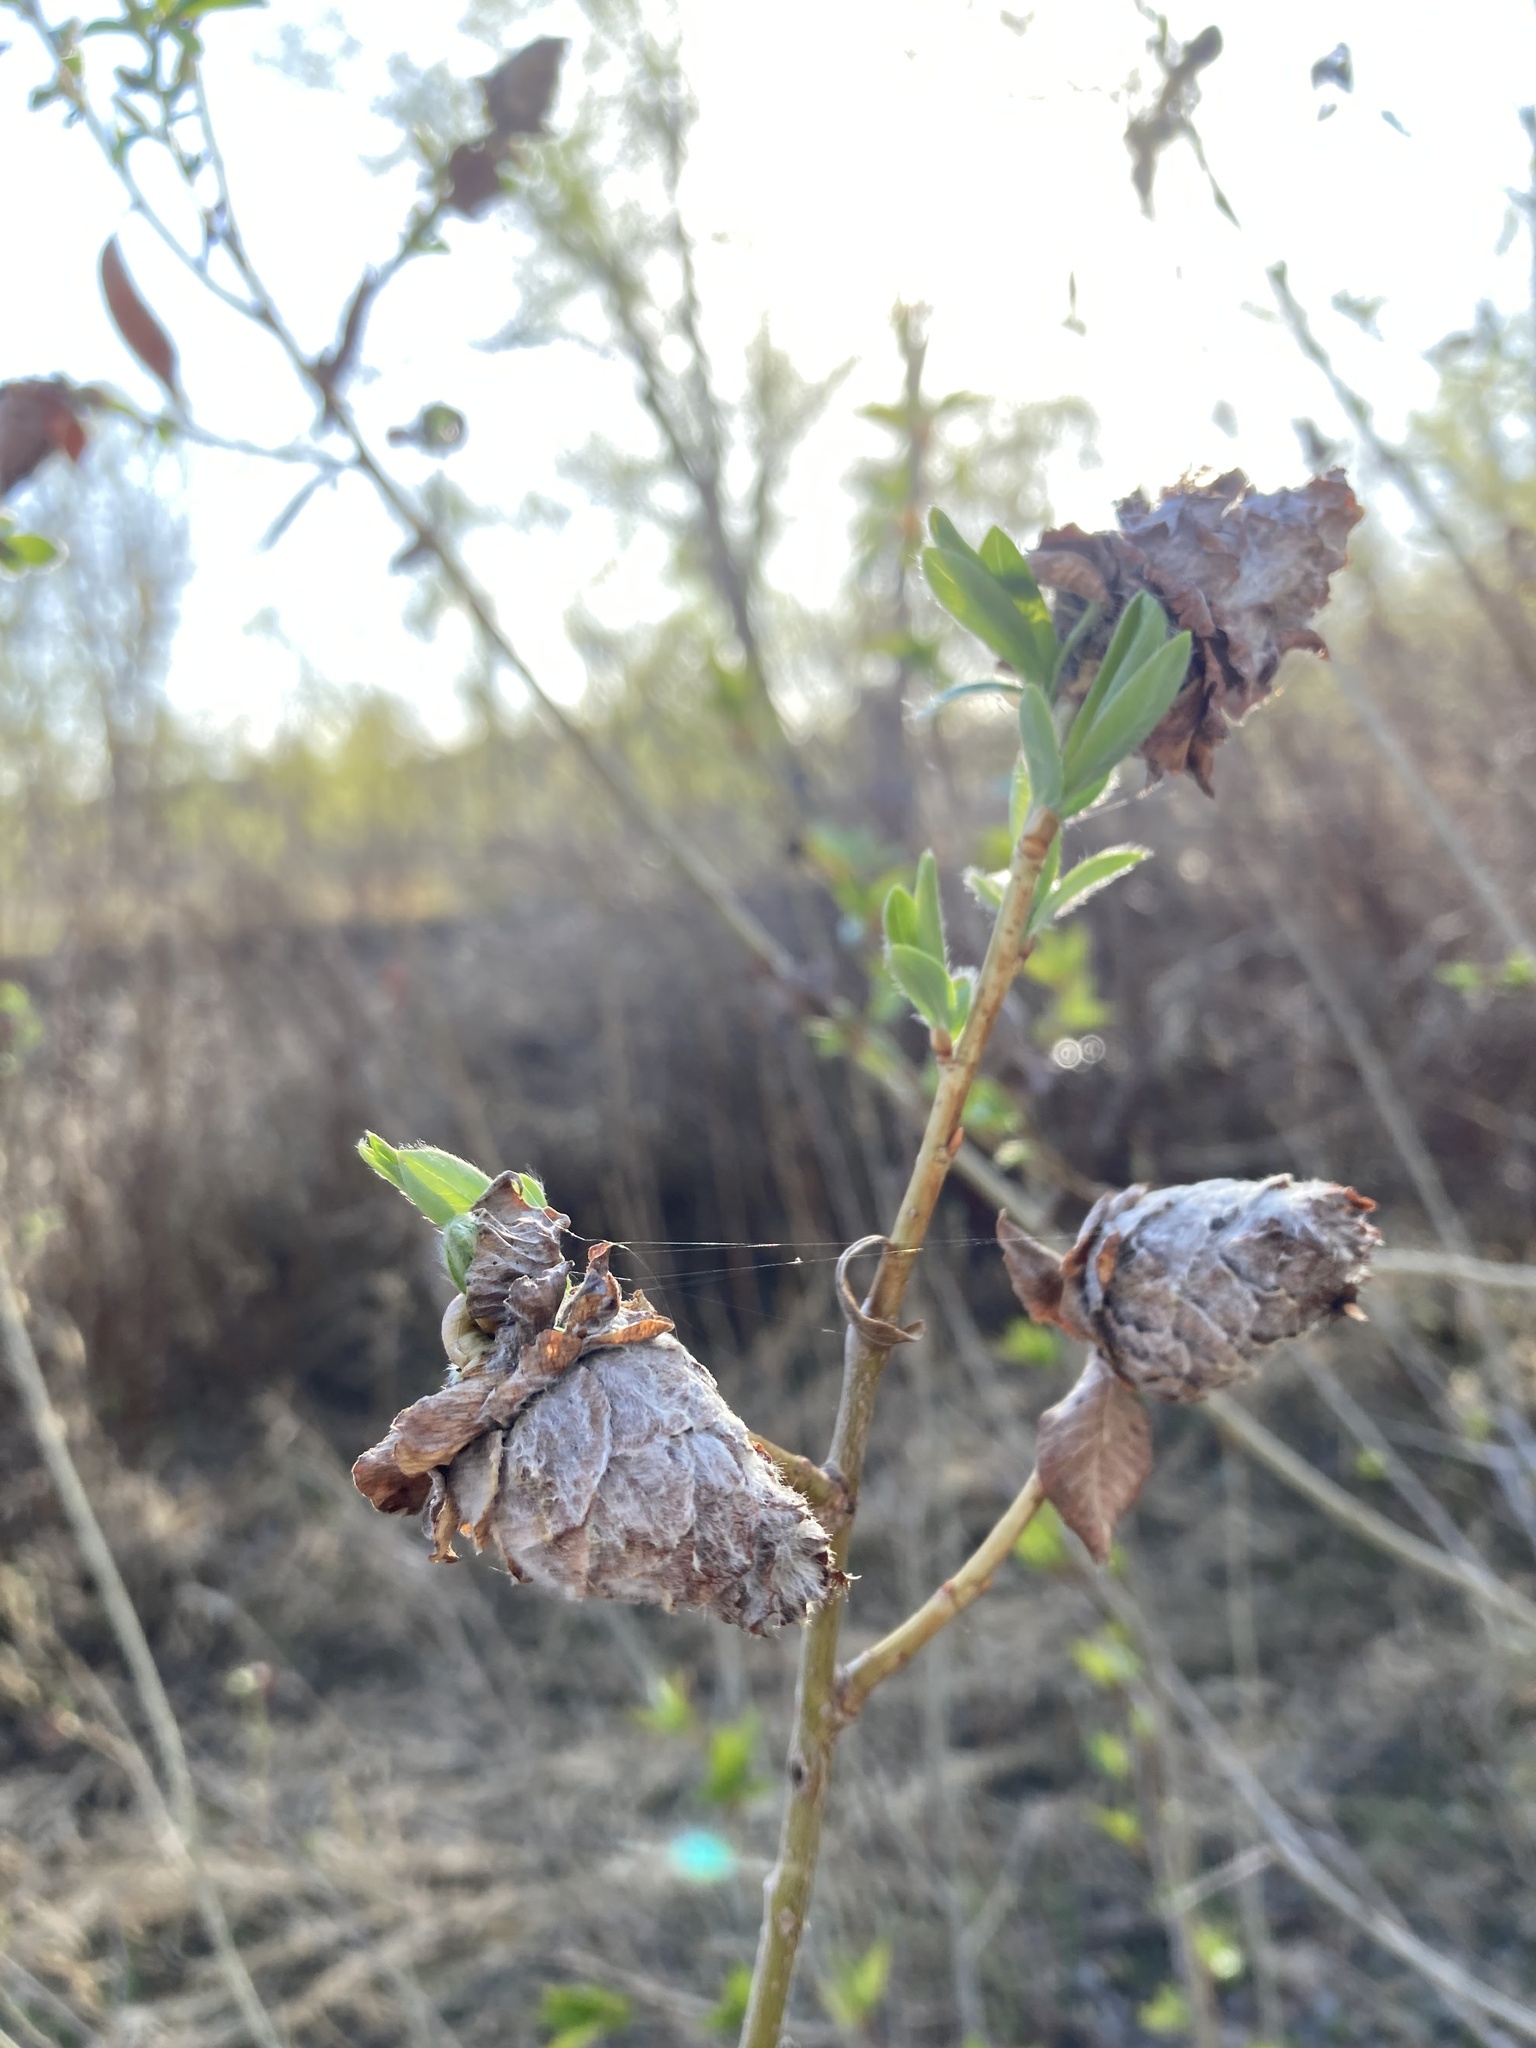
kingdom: Animalia
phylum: Arthropoda
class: Insecta
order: Diptera
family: Cecidomyiidae
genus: Rabdophaga
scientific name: Rabdophaga strobiloides
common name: Willow pinecone gall midge
